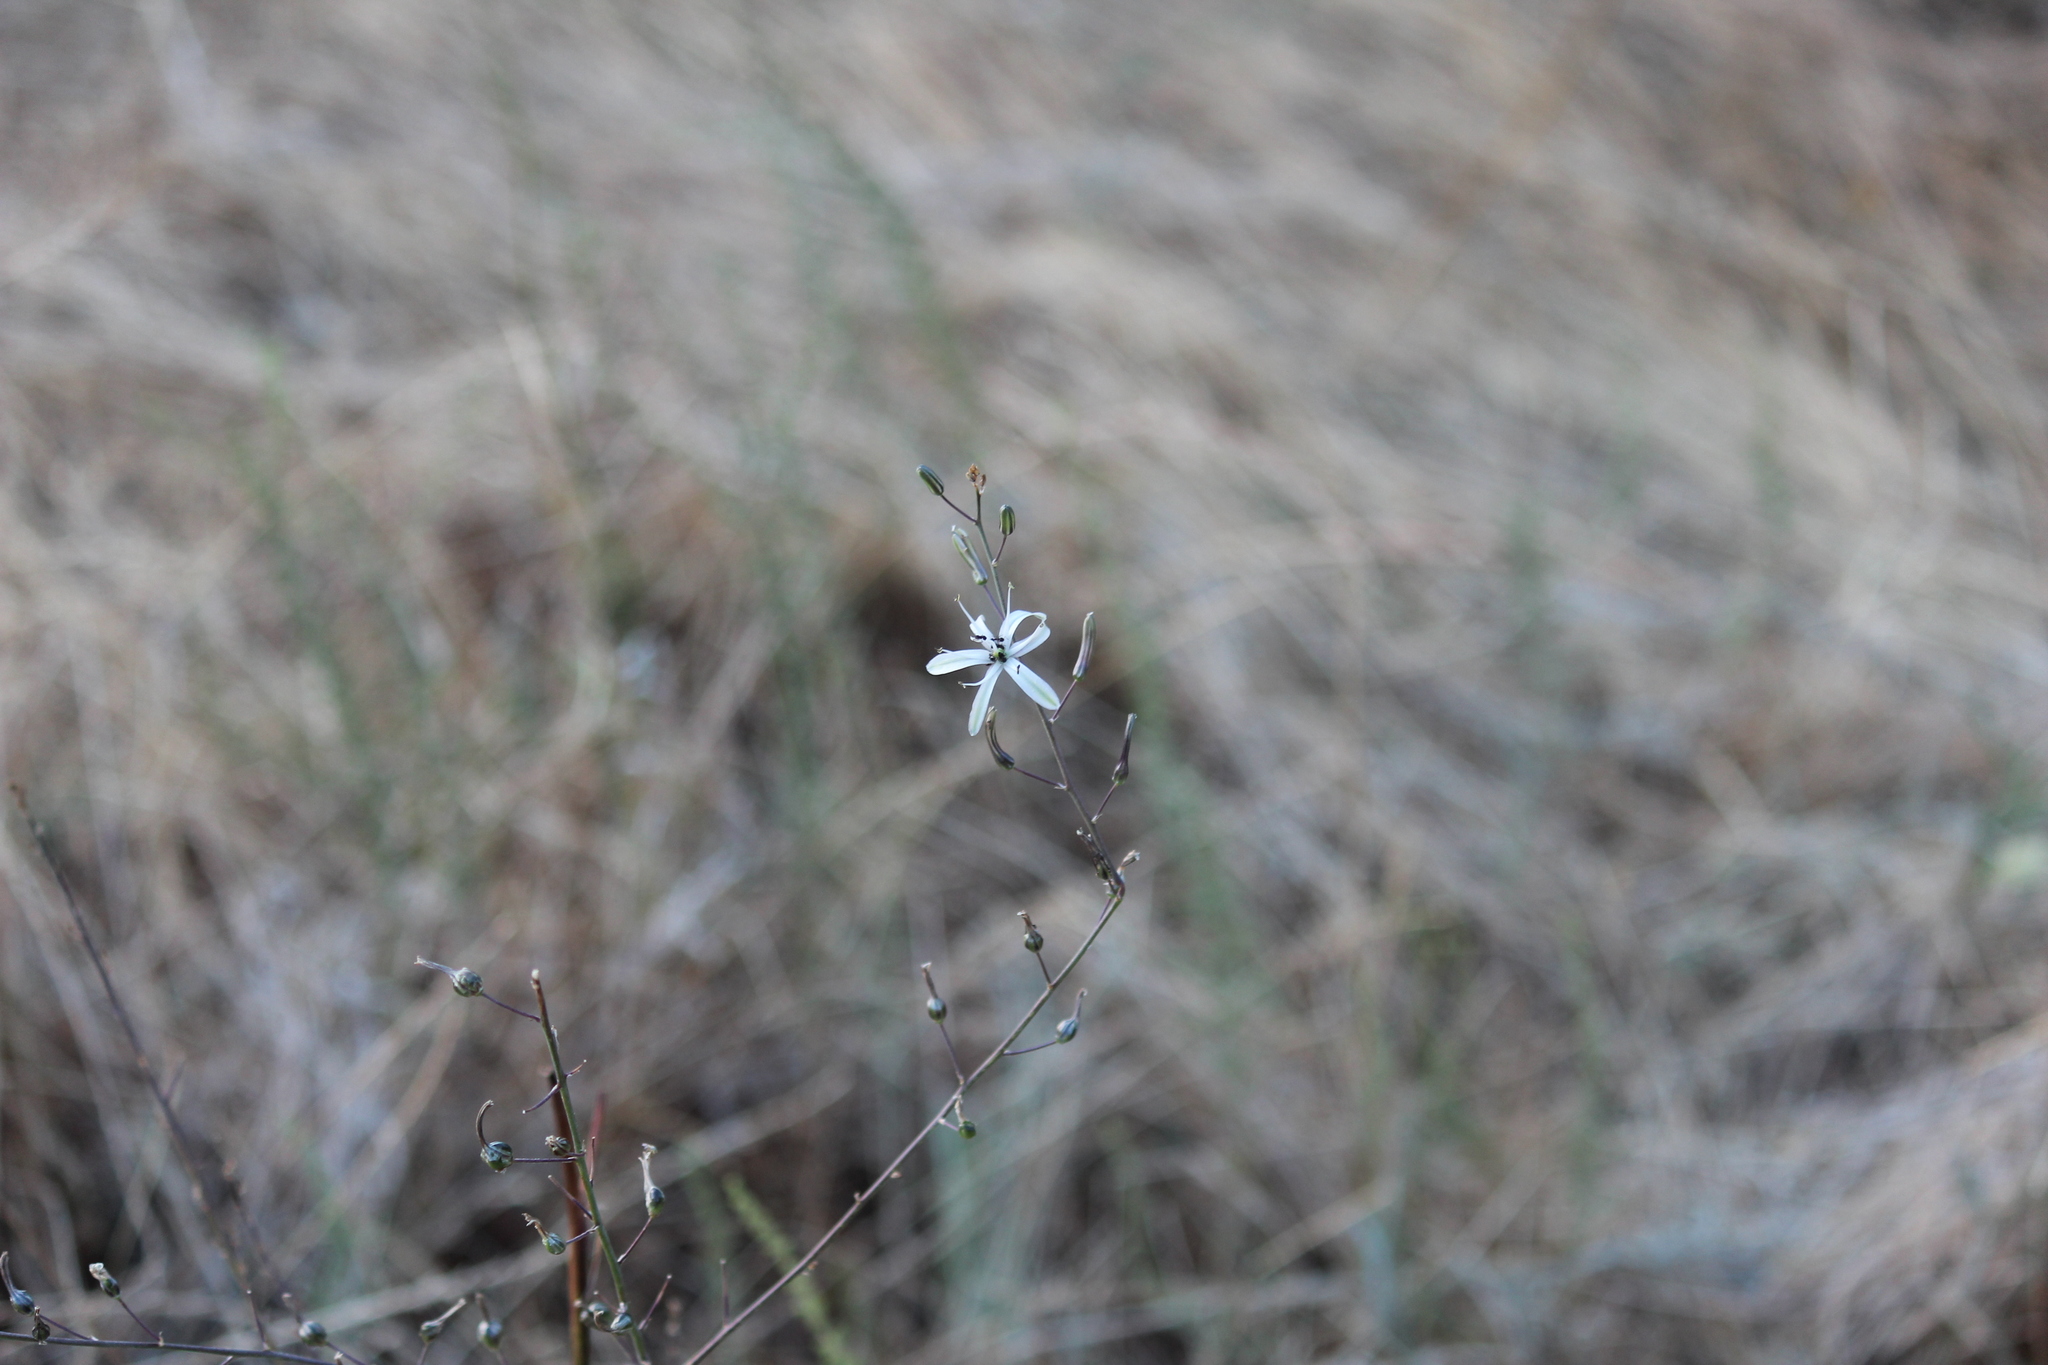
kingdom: Plantae
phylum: Tracheophyta
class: Liliopsida
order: Asparagales
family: Asparagaceae
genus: Chlorogalum
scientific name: Chlorogalum pomeridianum
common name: Amole
